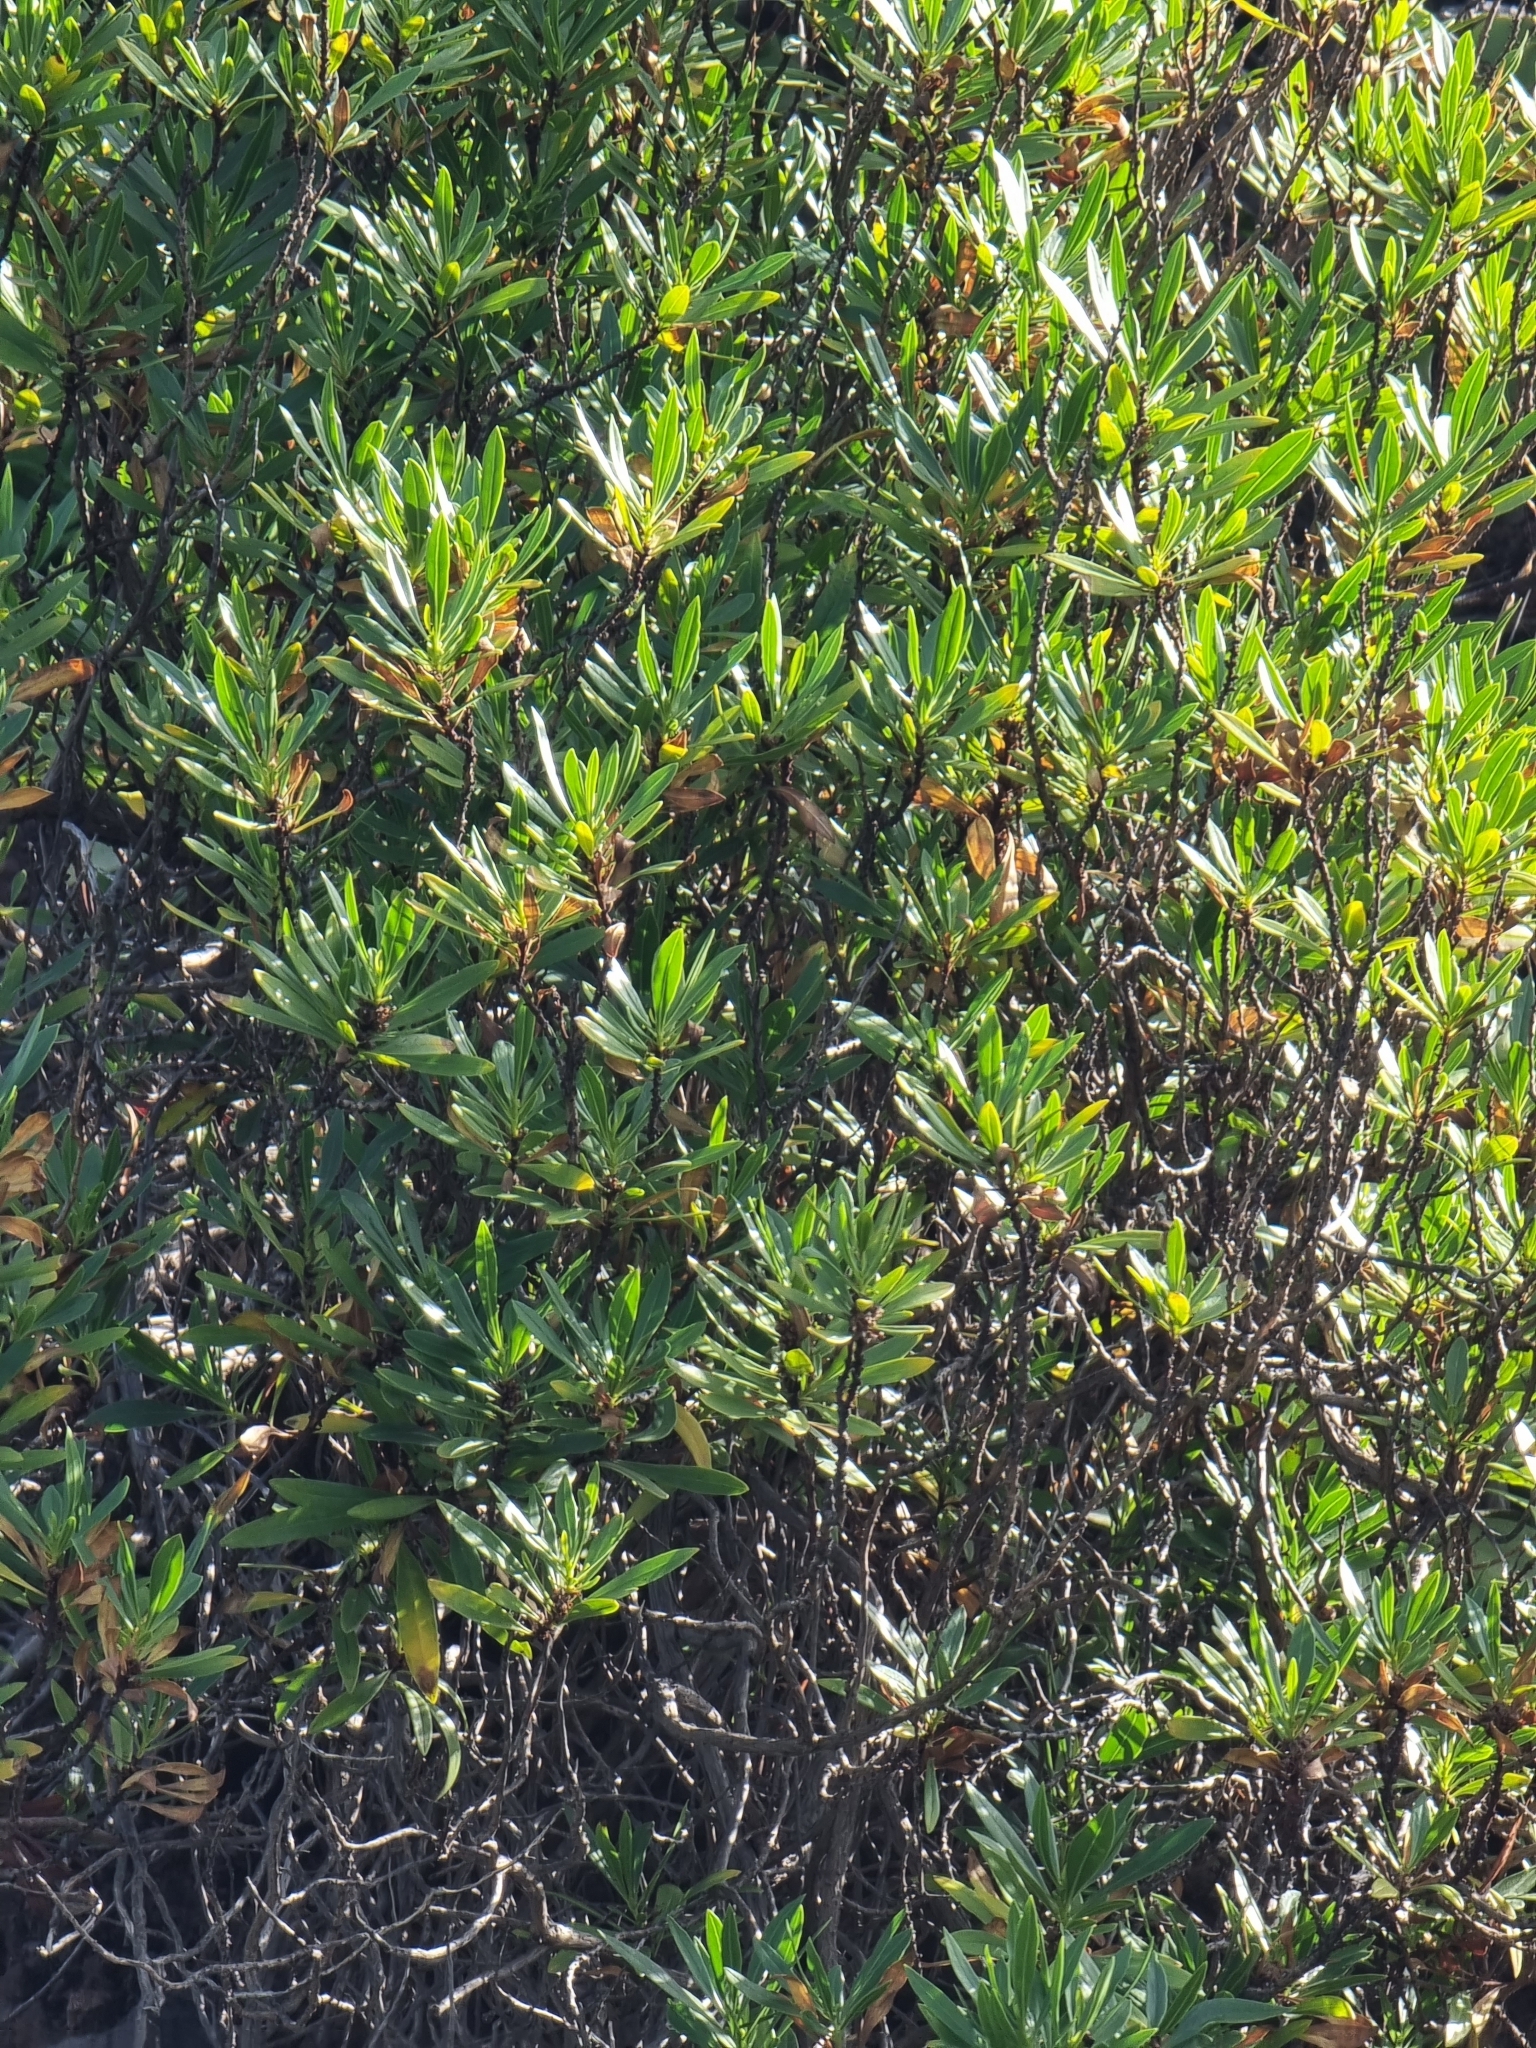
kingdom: Plantae
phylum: Tracheophyta
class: Magnoliopsida
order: Lamiales
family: Plantaginaceae
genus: Globularia
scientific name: Globularia salicina
